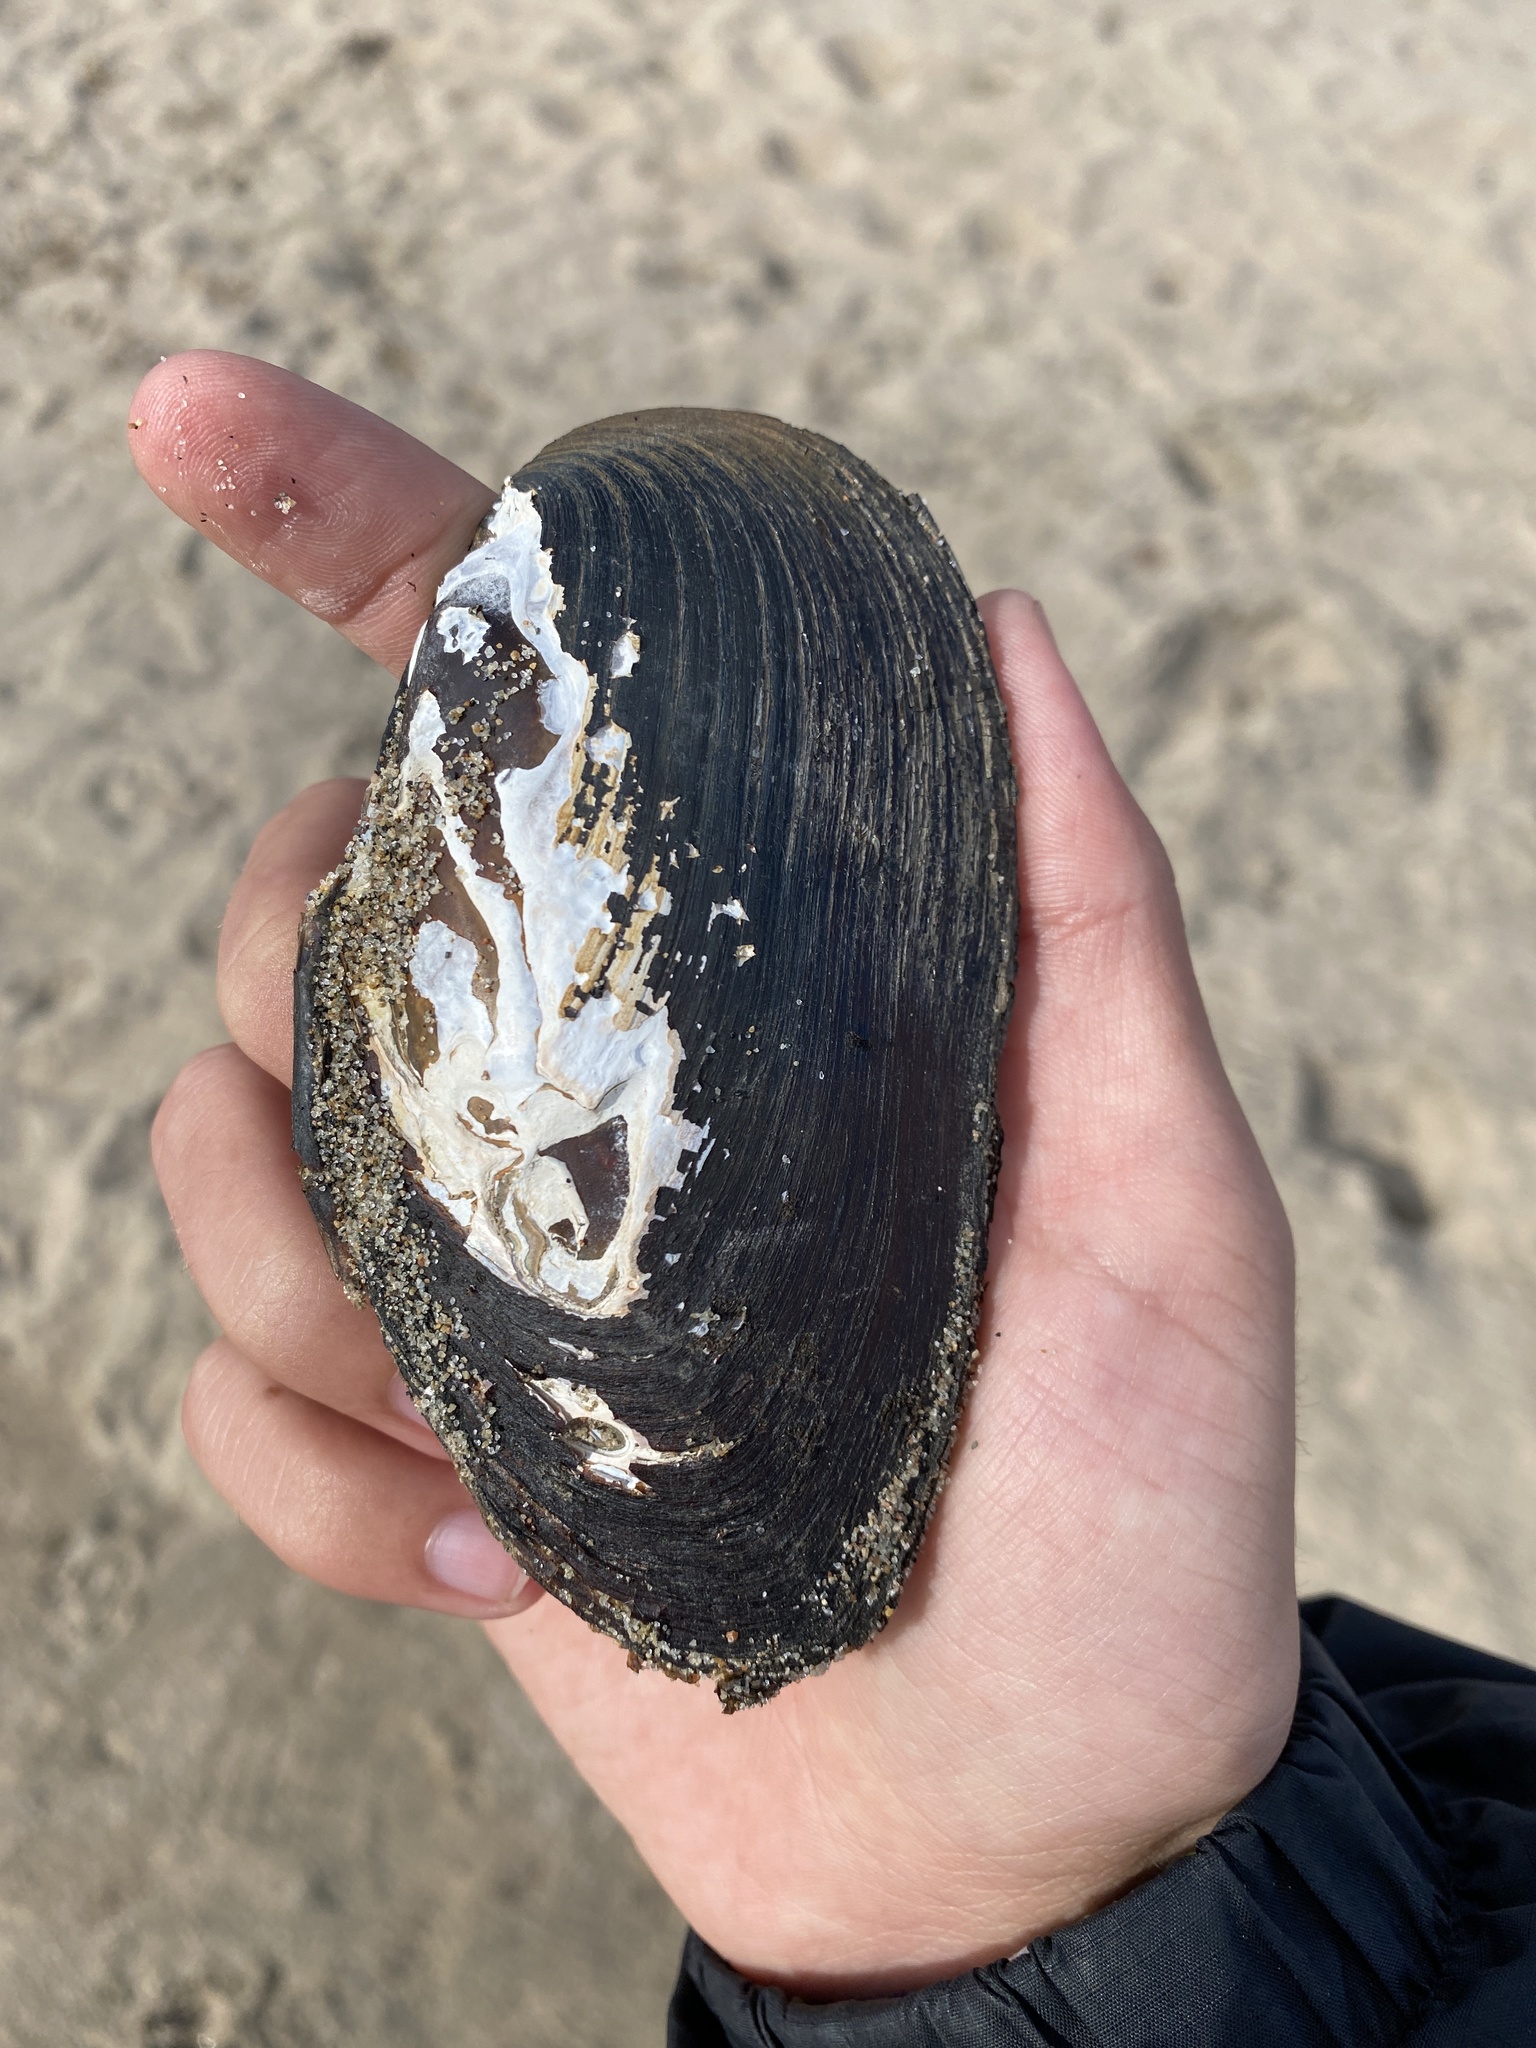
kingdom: Animalia
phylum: Mollusca
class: Bivalvia
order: Unionida
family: Unionidae
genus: Elliptio
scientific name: Elliptio complanata
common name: Eastern elliptio
